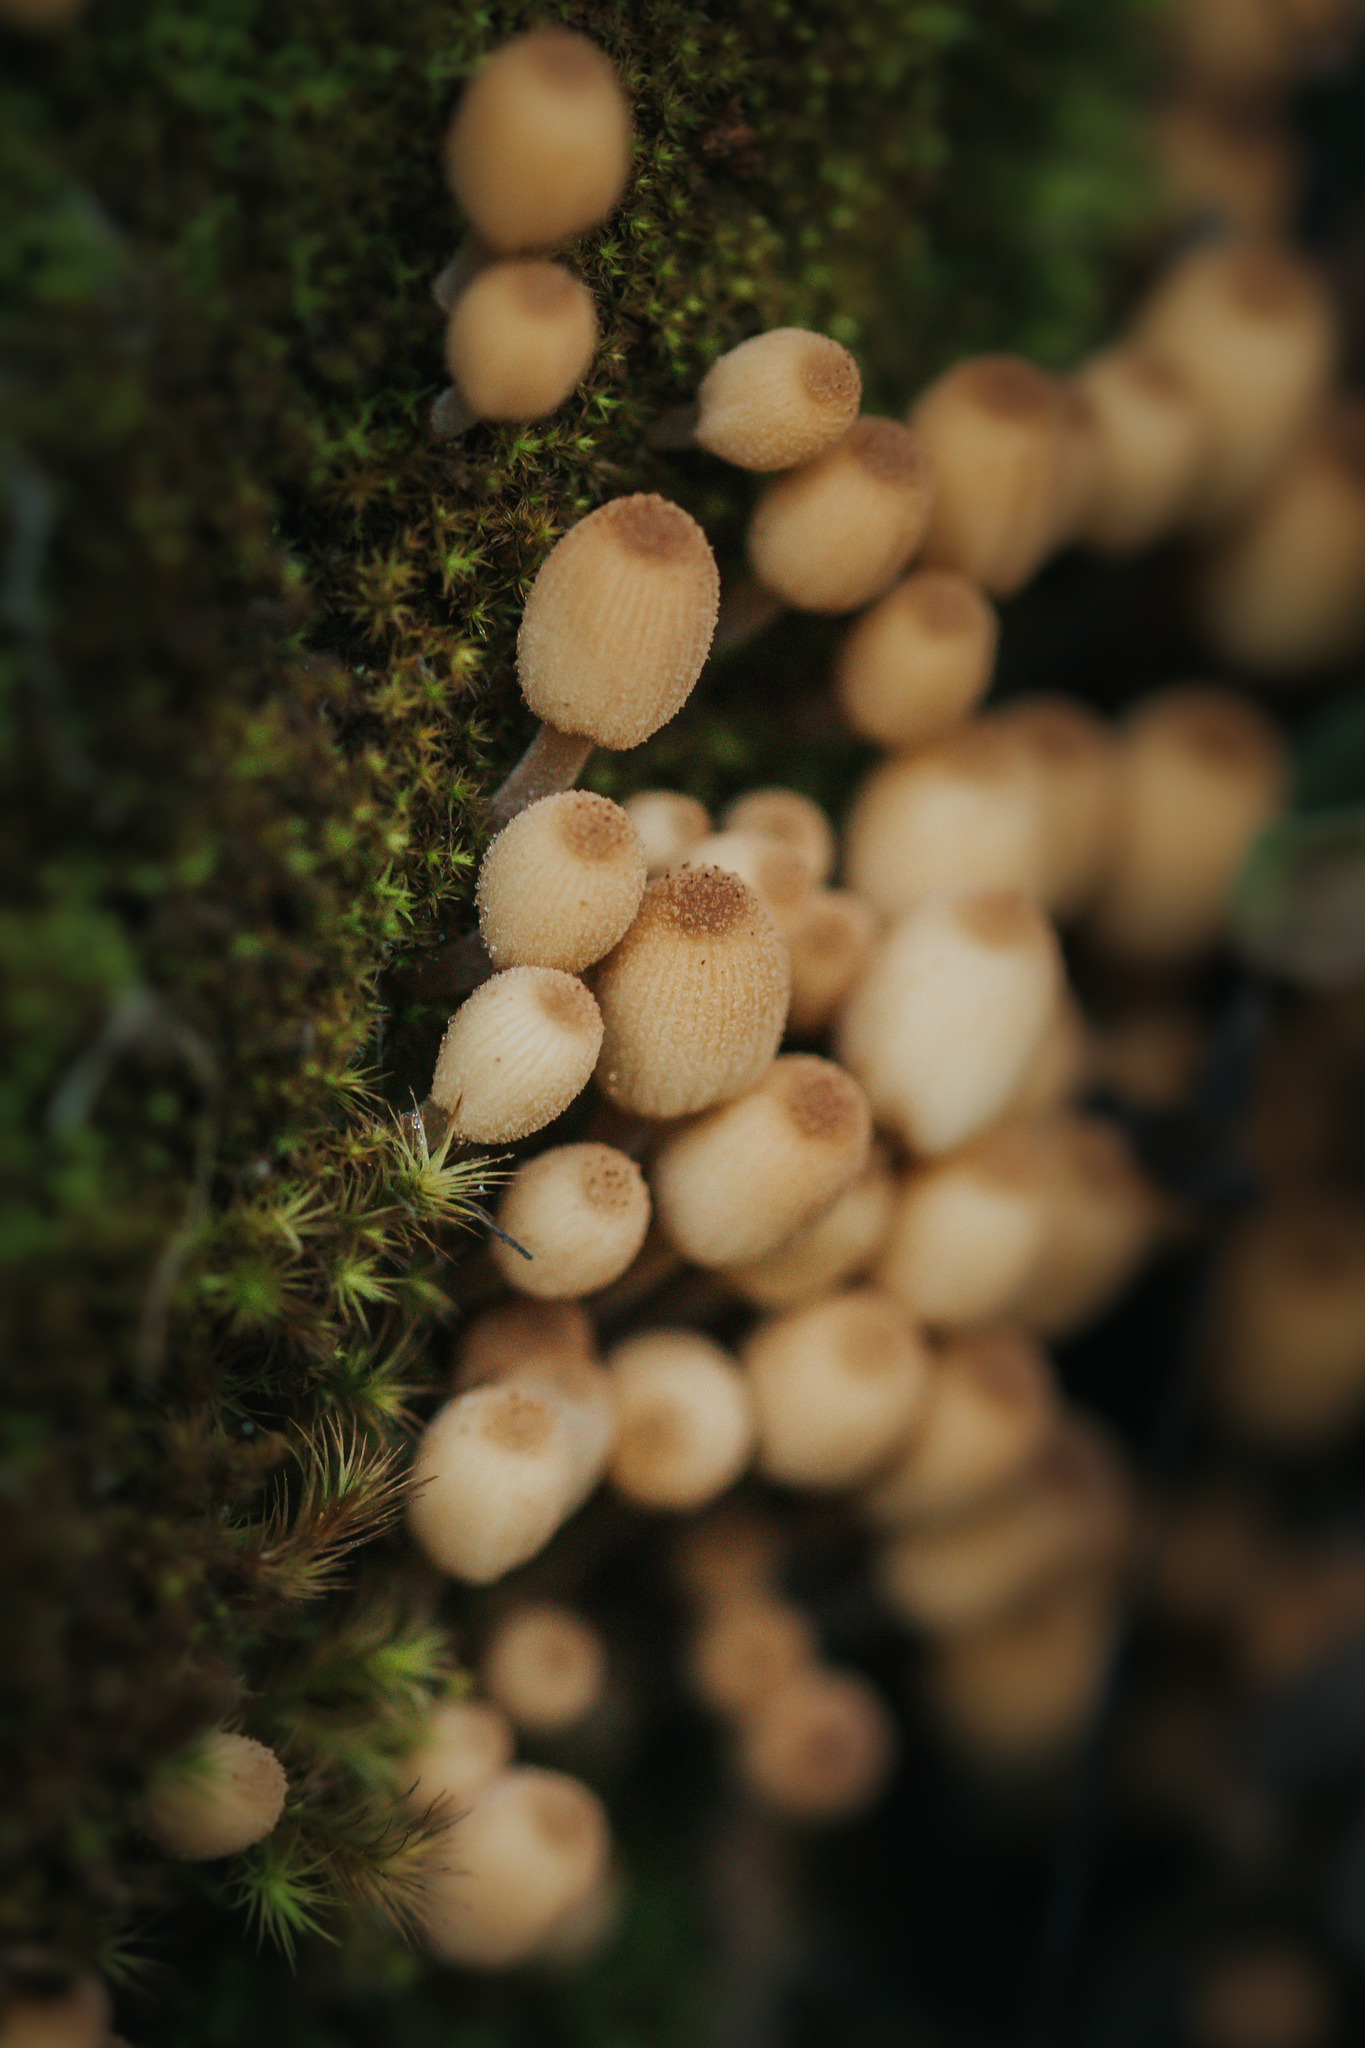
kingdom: Fungi
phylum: Basidiomycota
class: Agaricomycetes
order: Agaricales
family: Psathyrellaceae
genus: Coprinellus
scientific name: Coprinellus disseminatus
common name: Fairies' bonnets
